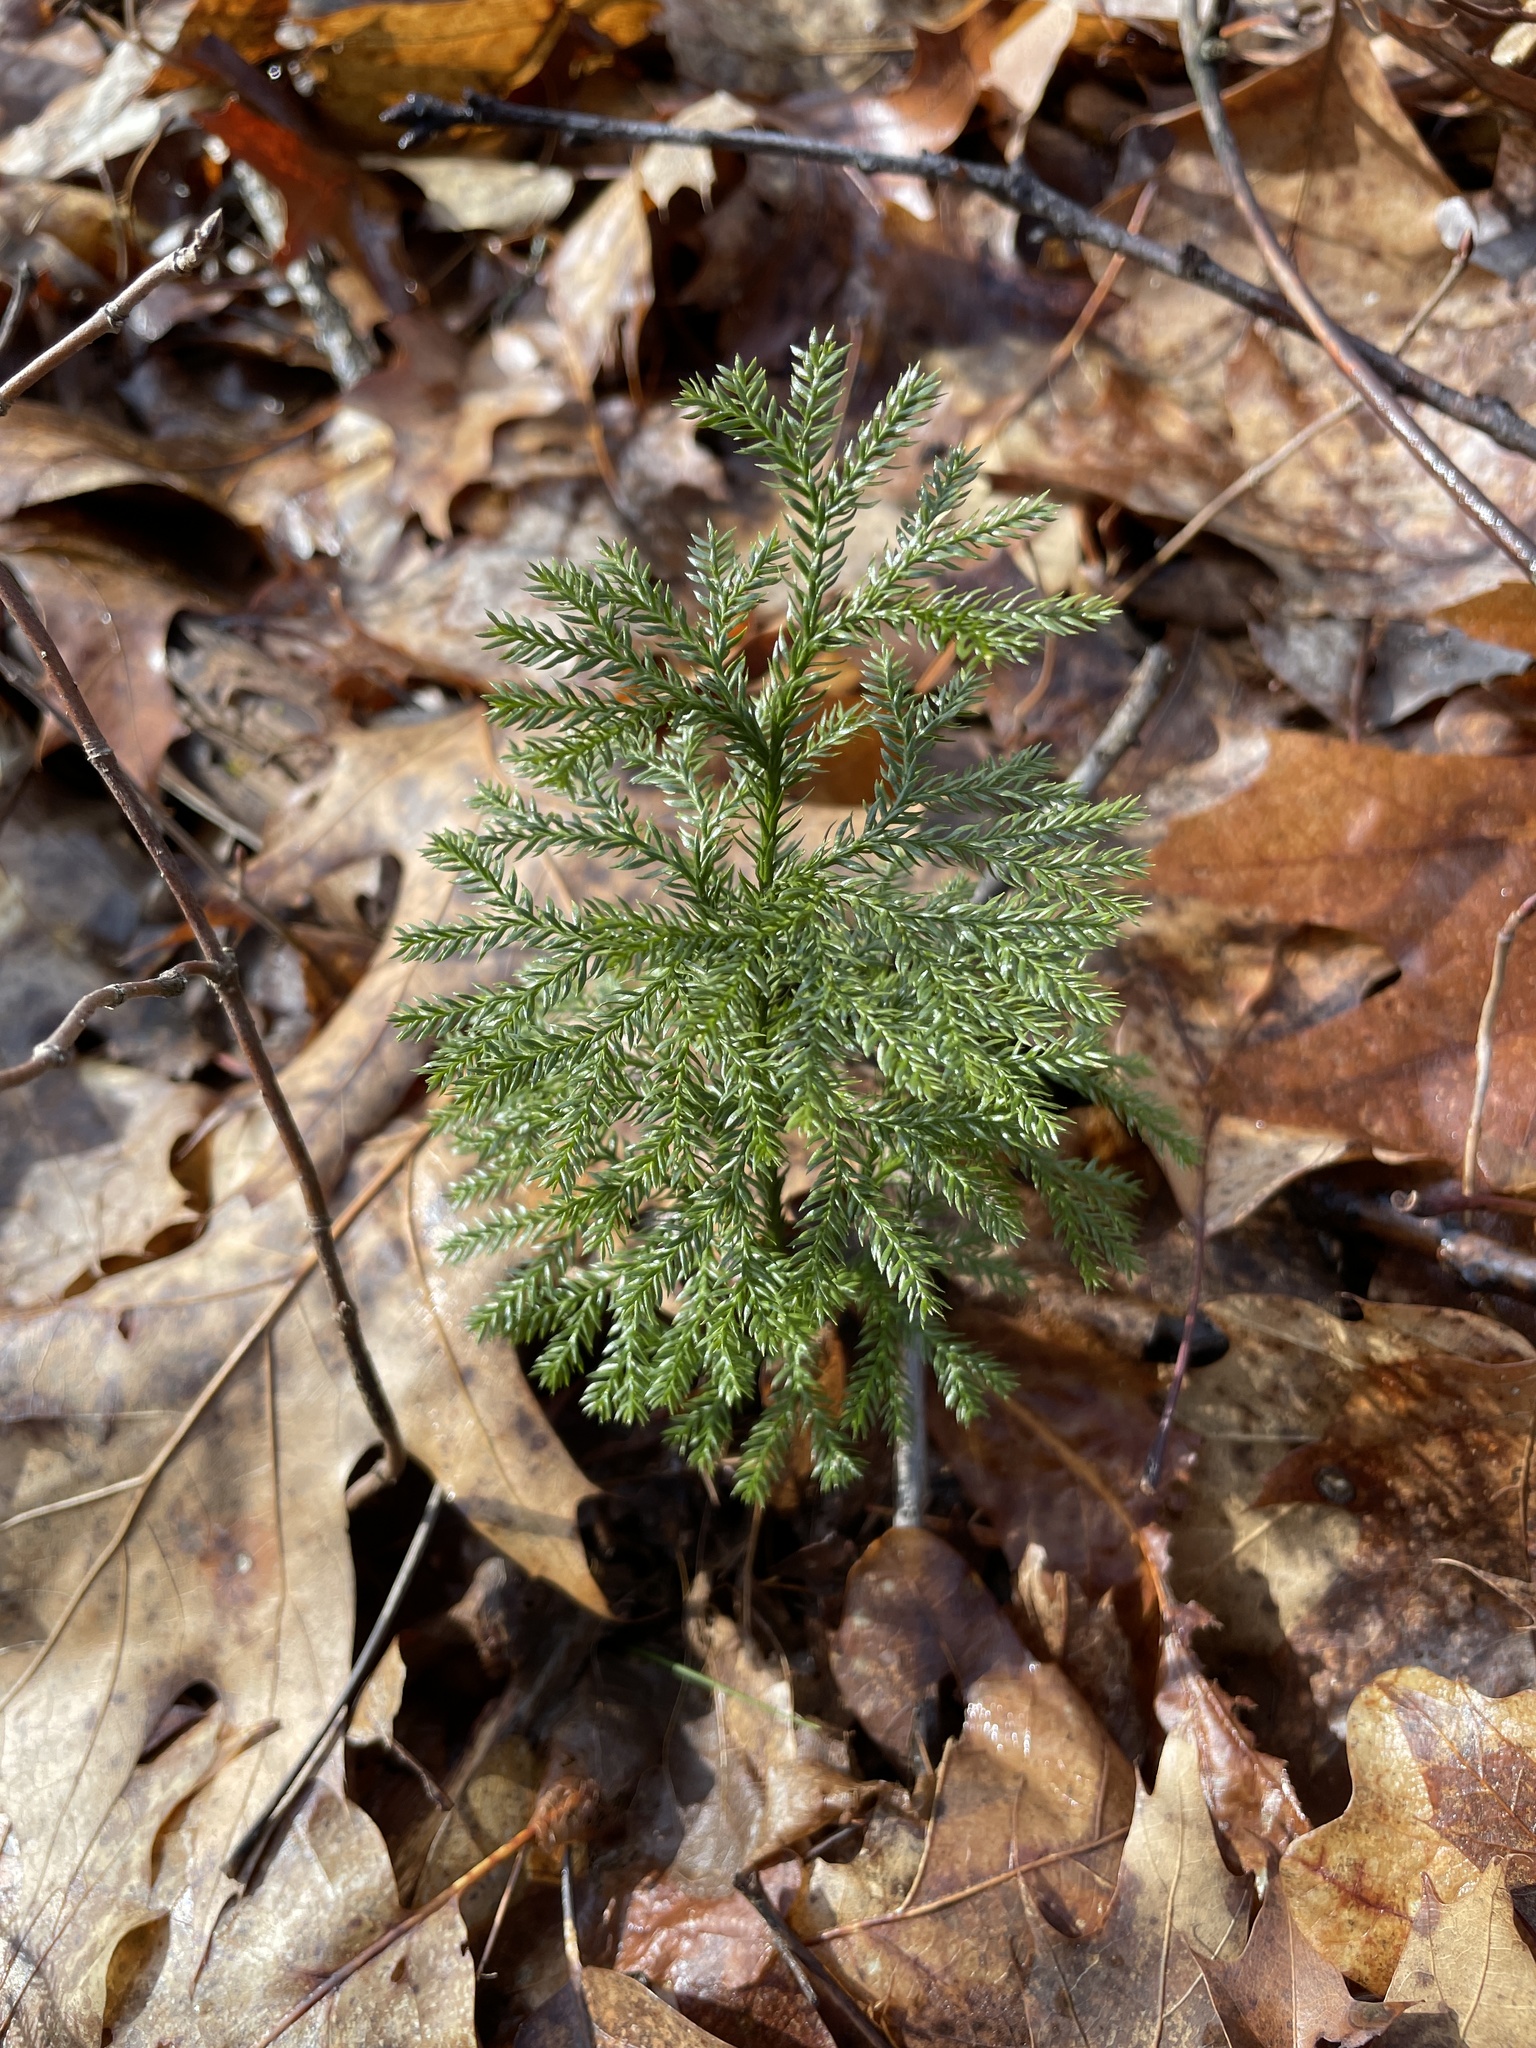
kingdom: Plantae
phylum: Tracheophyta
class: Lycopodiopsida
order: Lycopodiales
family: Lycopodiaceae
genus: Dendrolycopodium
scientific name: Dendrolycopodium obscurum
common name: Common ground-pine
